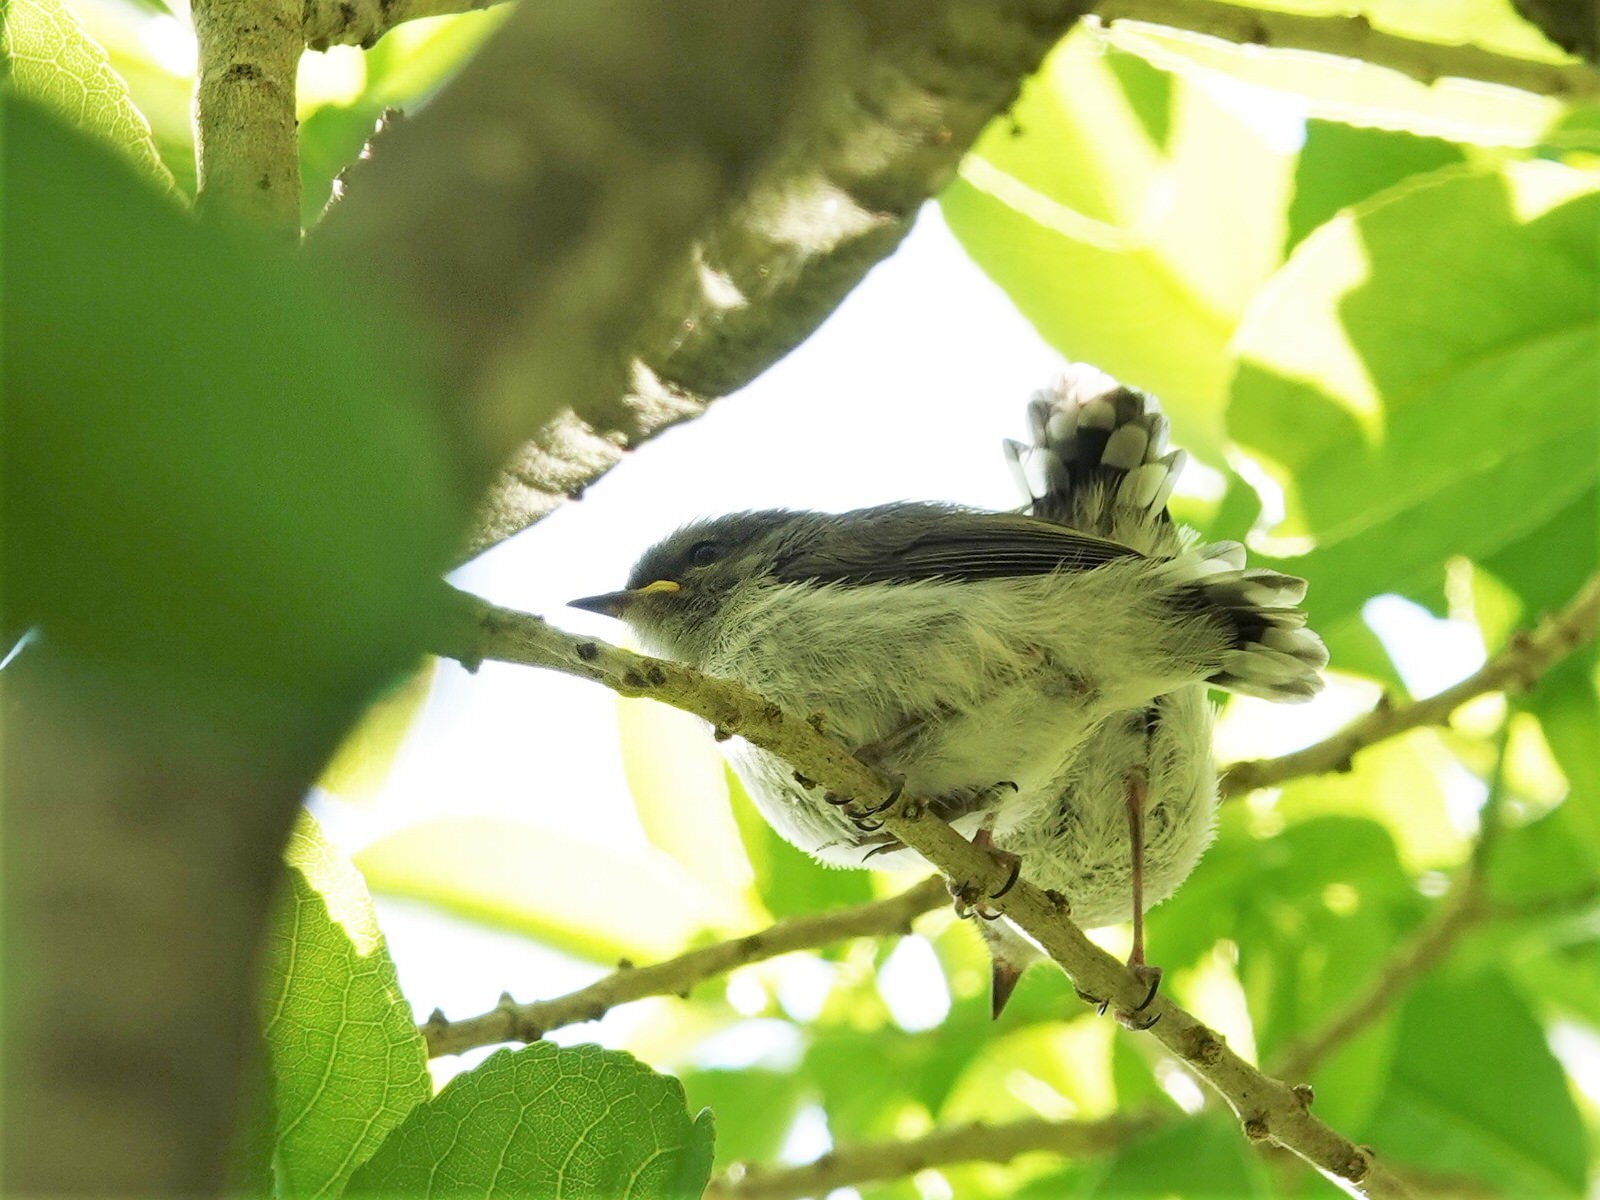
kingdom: Animalia
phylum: Chordata
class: Aves
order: Passeriformes
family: Acanthizidae
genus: Gerygone
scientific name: Gerygone igata
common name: Grey gerygone
